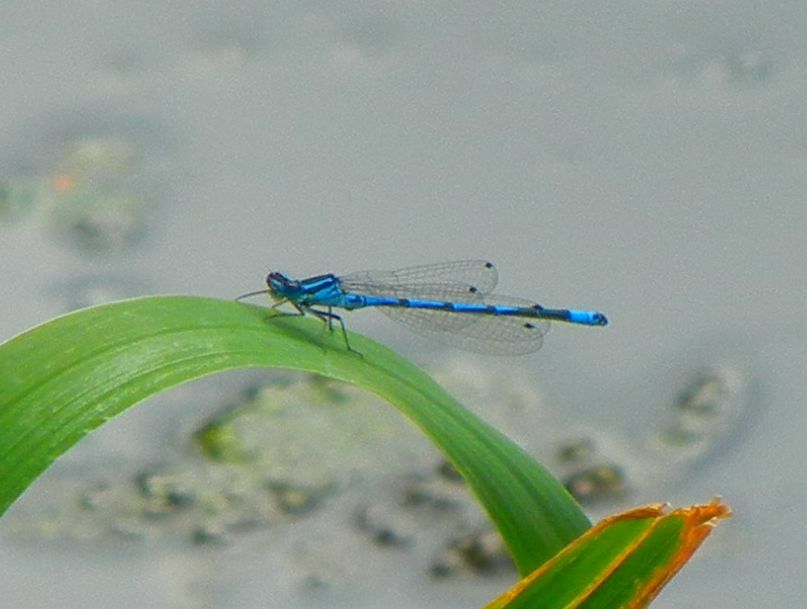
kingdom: Animalia
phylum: Arthropoda
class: Insecta
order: Odonata
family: Coenagrionidae
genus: Coenagrion
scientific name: Coenagrion puella
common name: Azure damselfly
